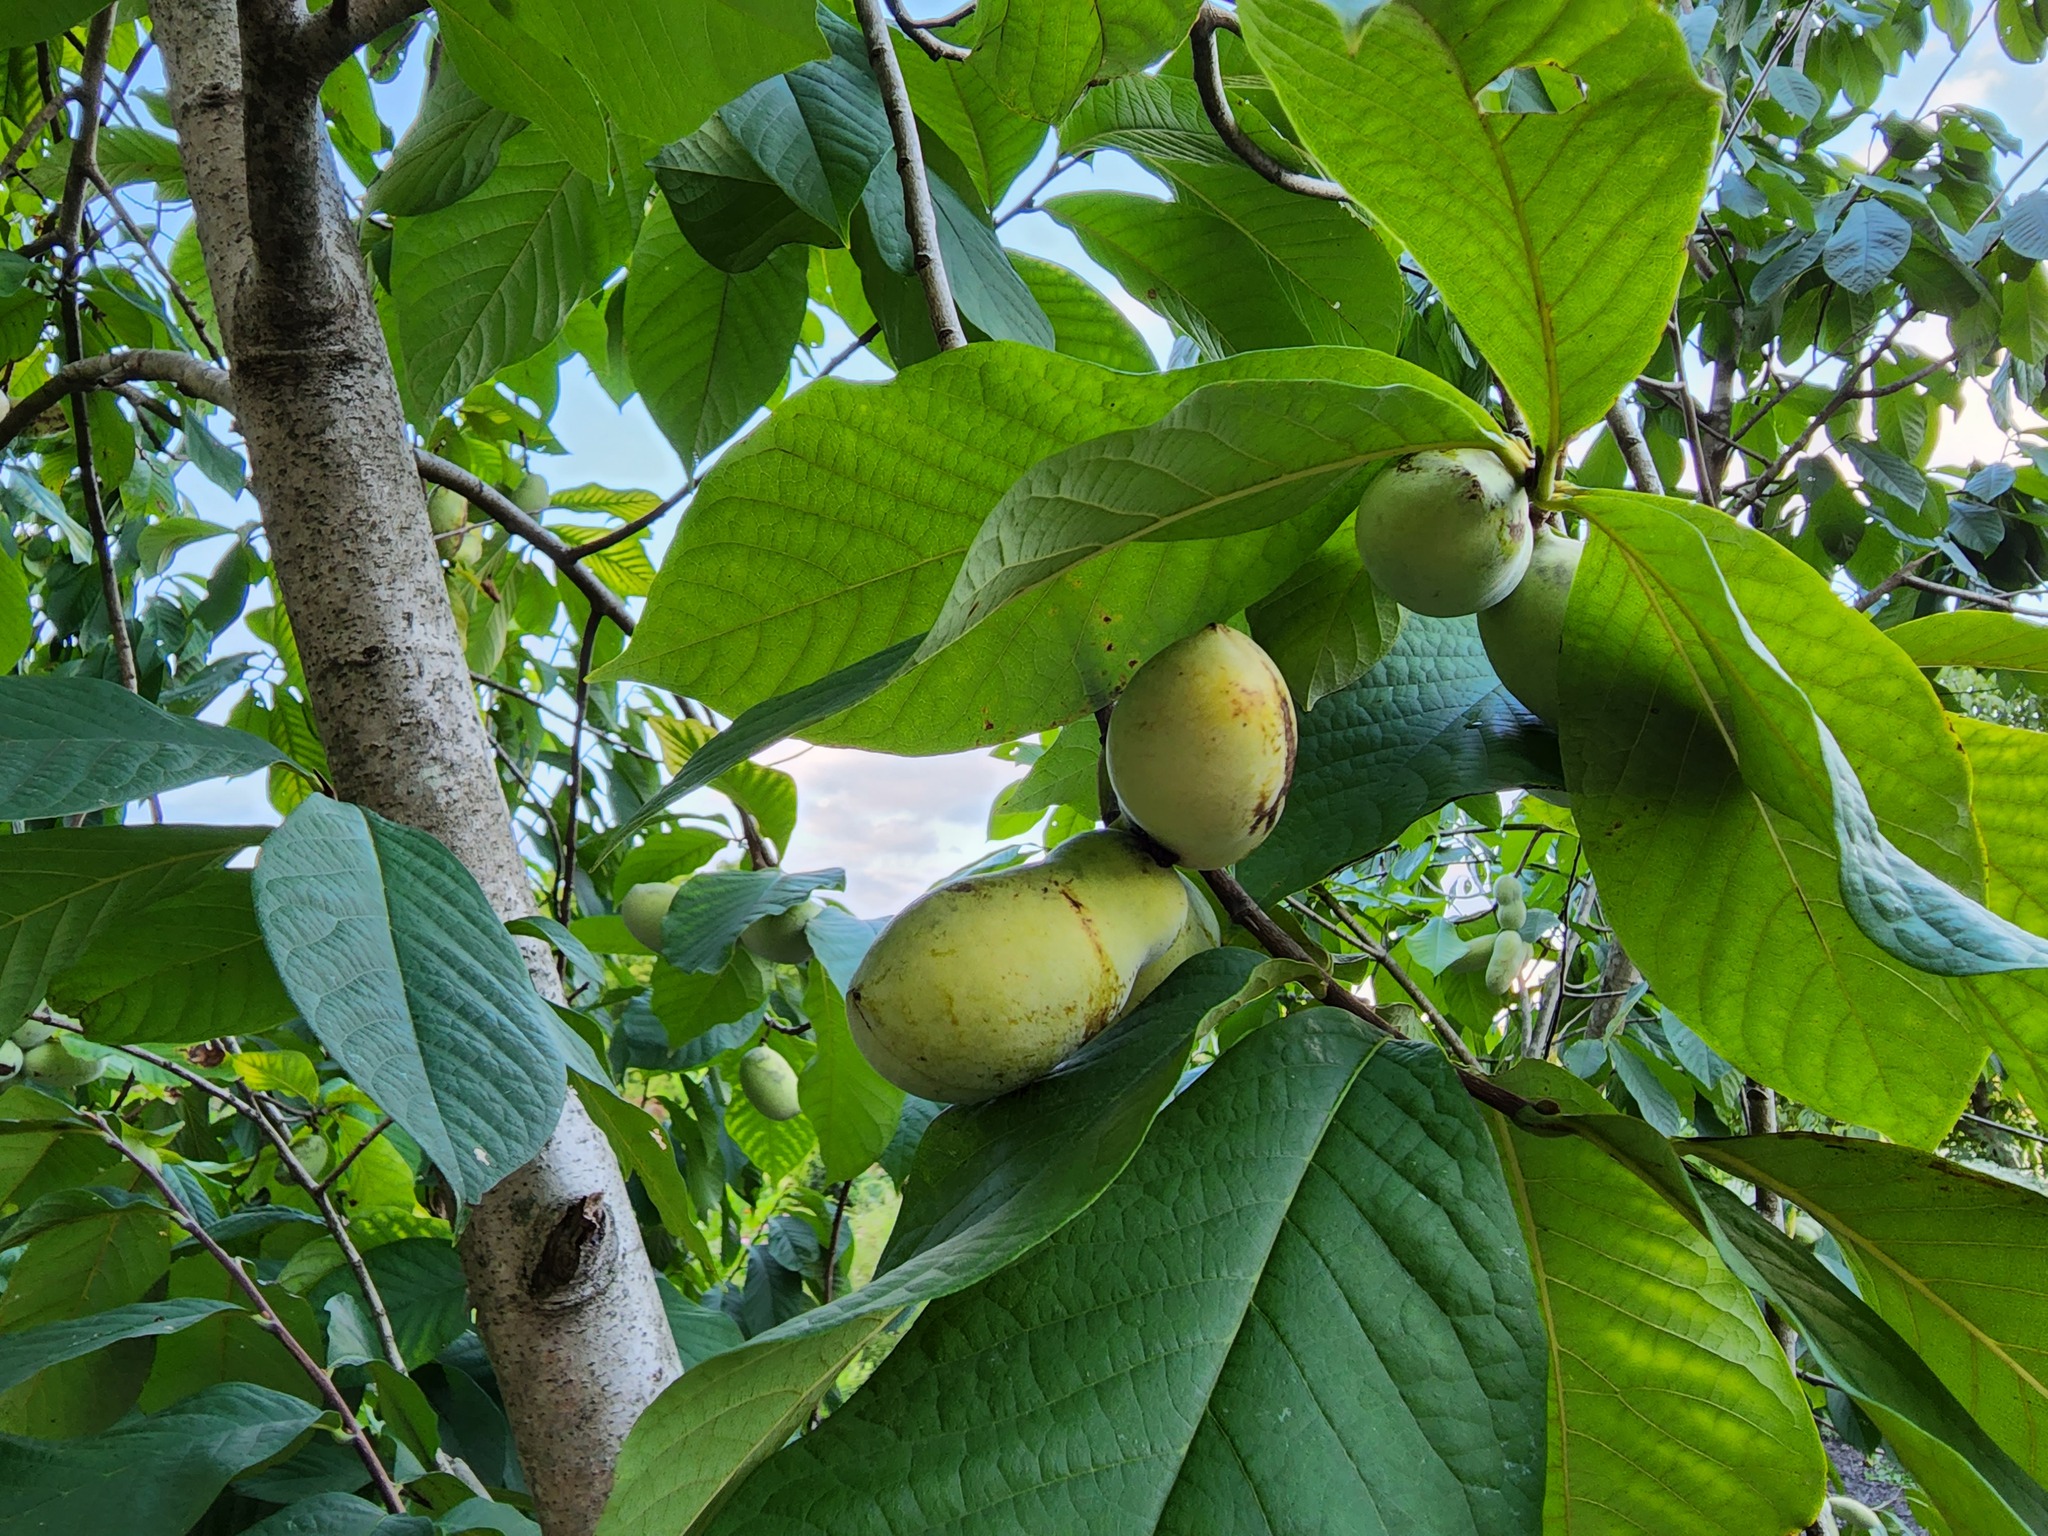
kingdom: Plantae
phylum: Tracheophyta
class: Magnoliopsida
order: Magnoliales
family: Annonaceae
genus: Asimina
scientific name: Asimina triloba
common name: Dog-banana
